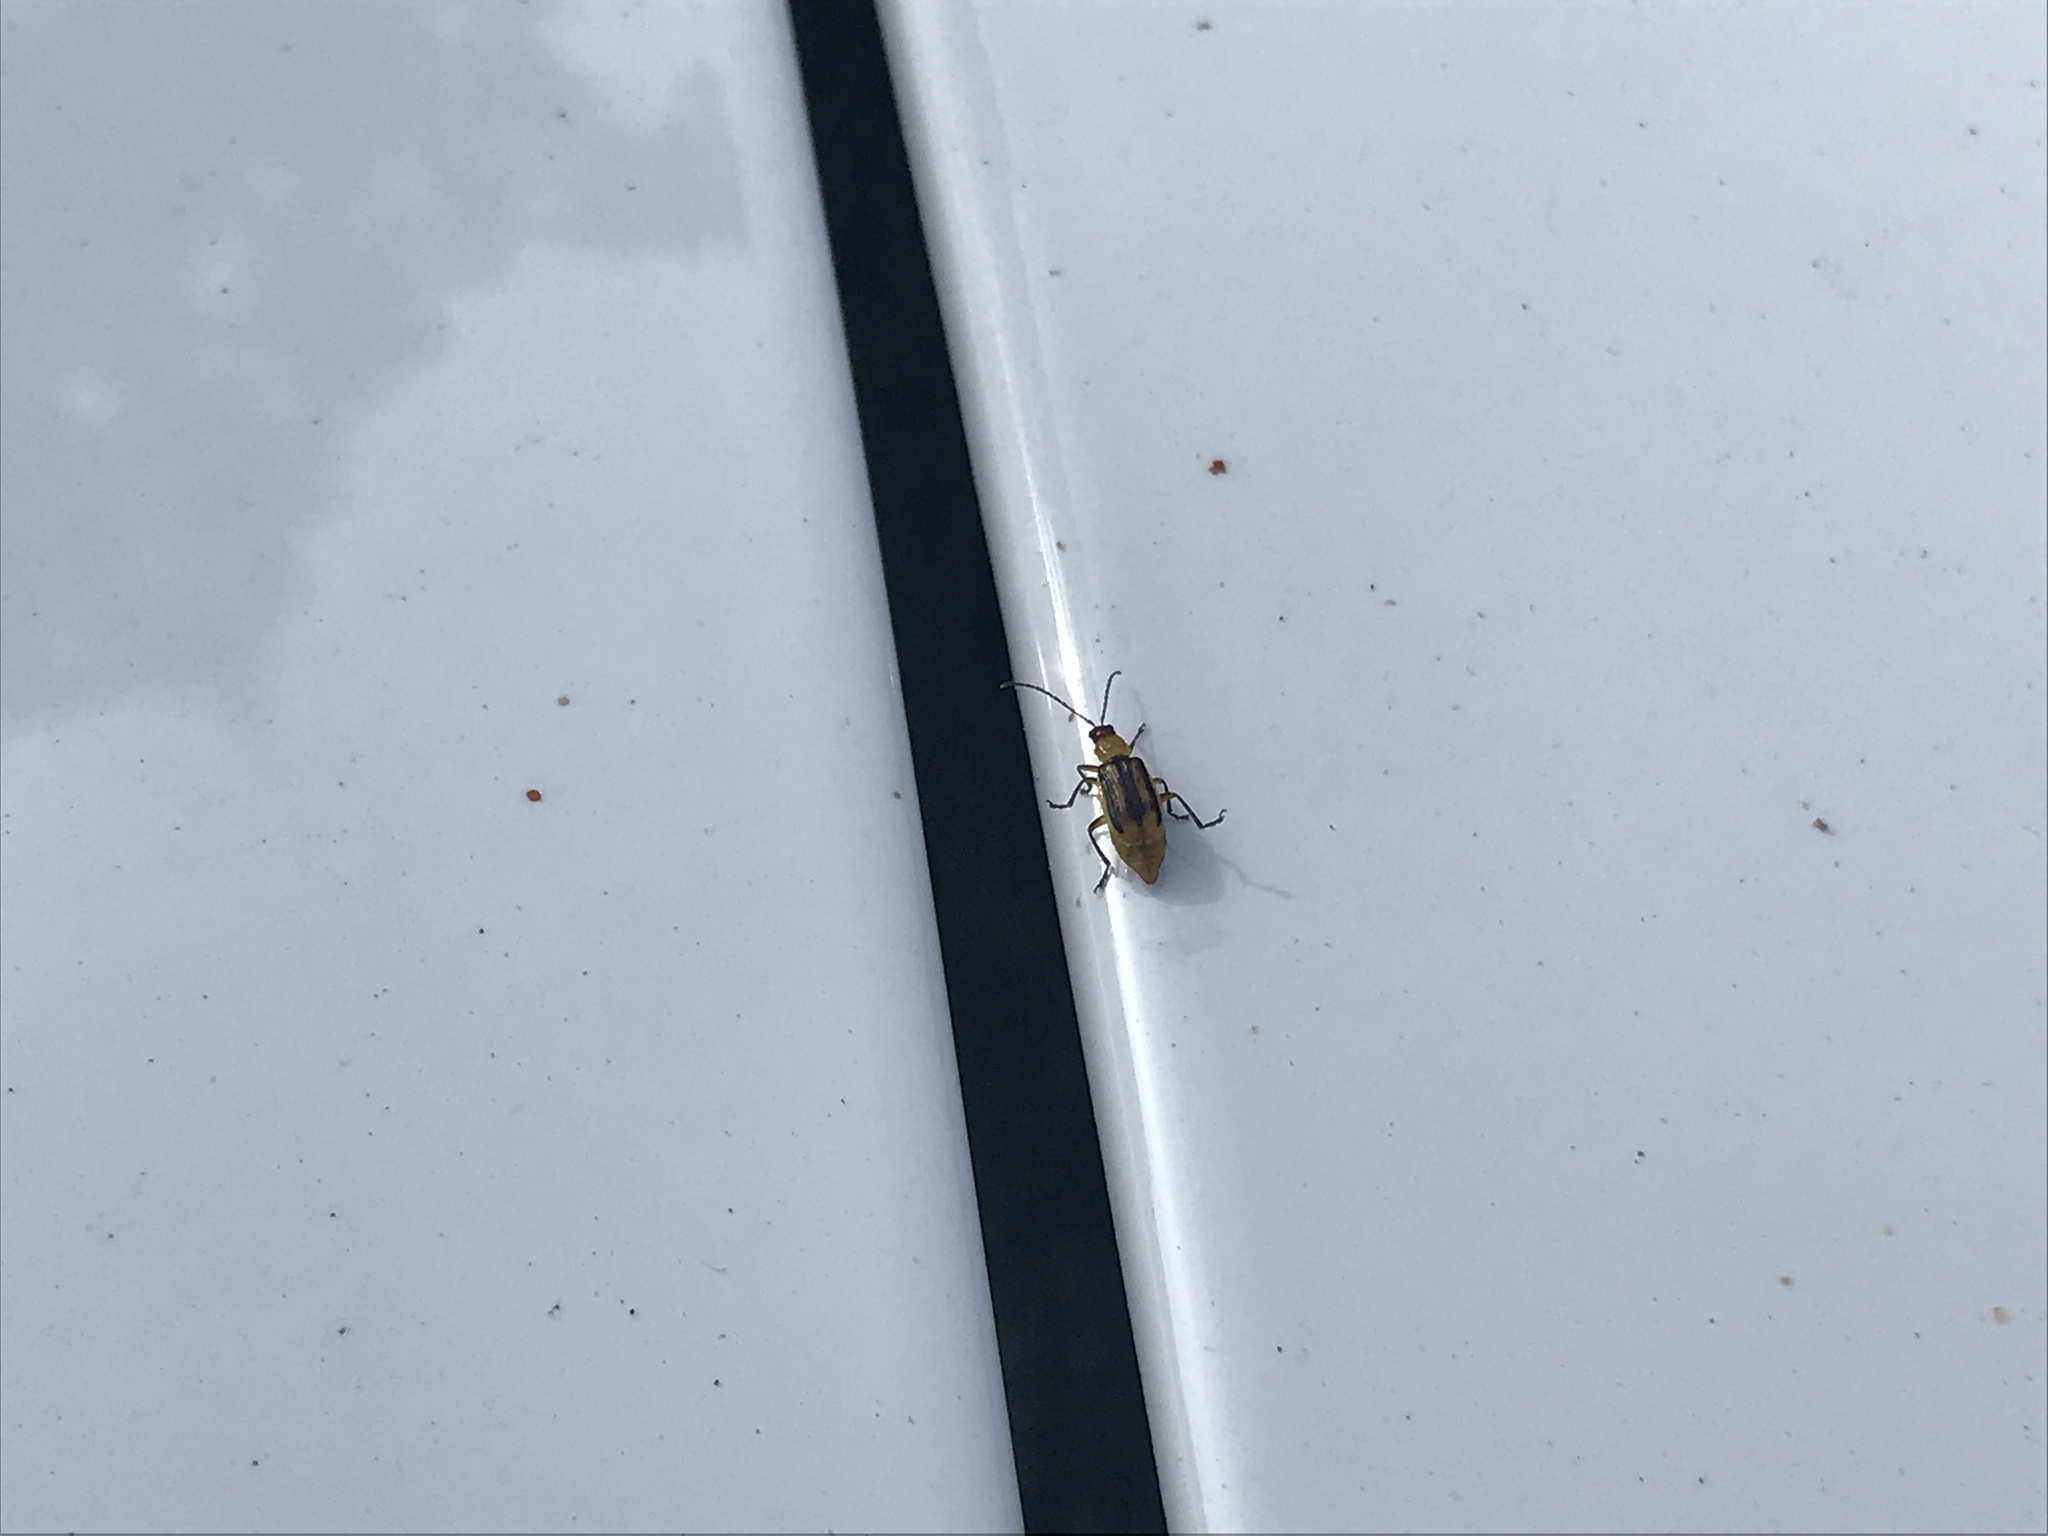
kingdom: Animalia
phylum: Arthropoda
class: Insecta
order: Coleoptera
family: Chrysomelidae
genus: Diabrotica
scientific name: Diabrotica virgifera
